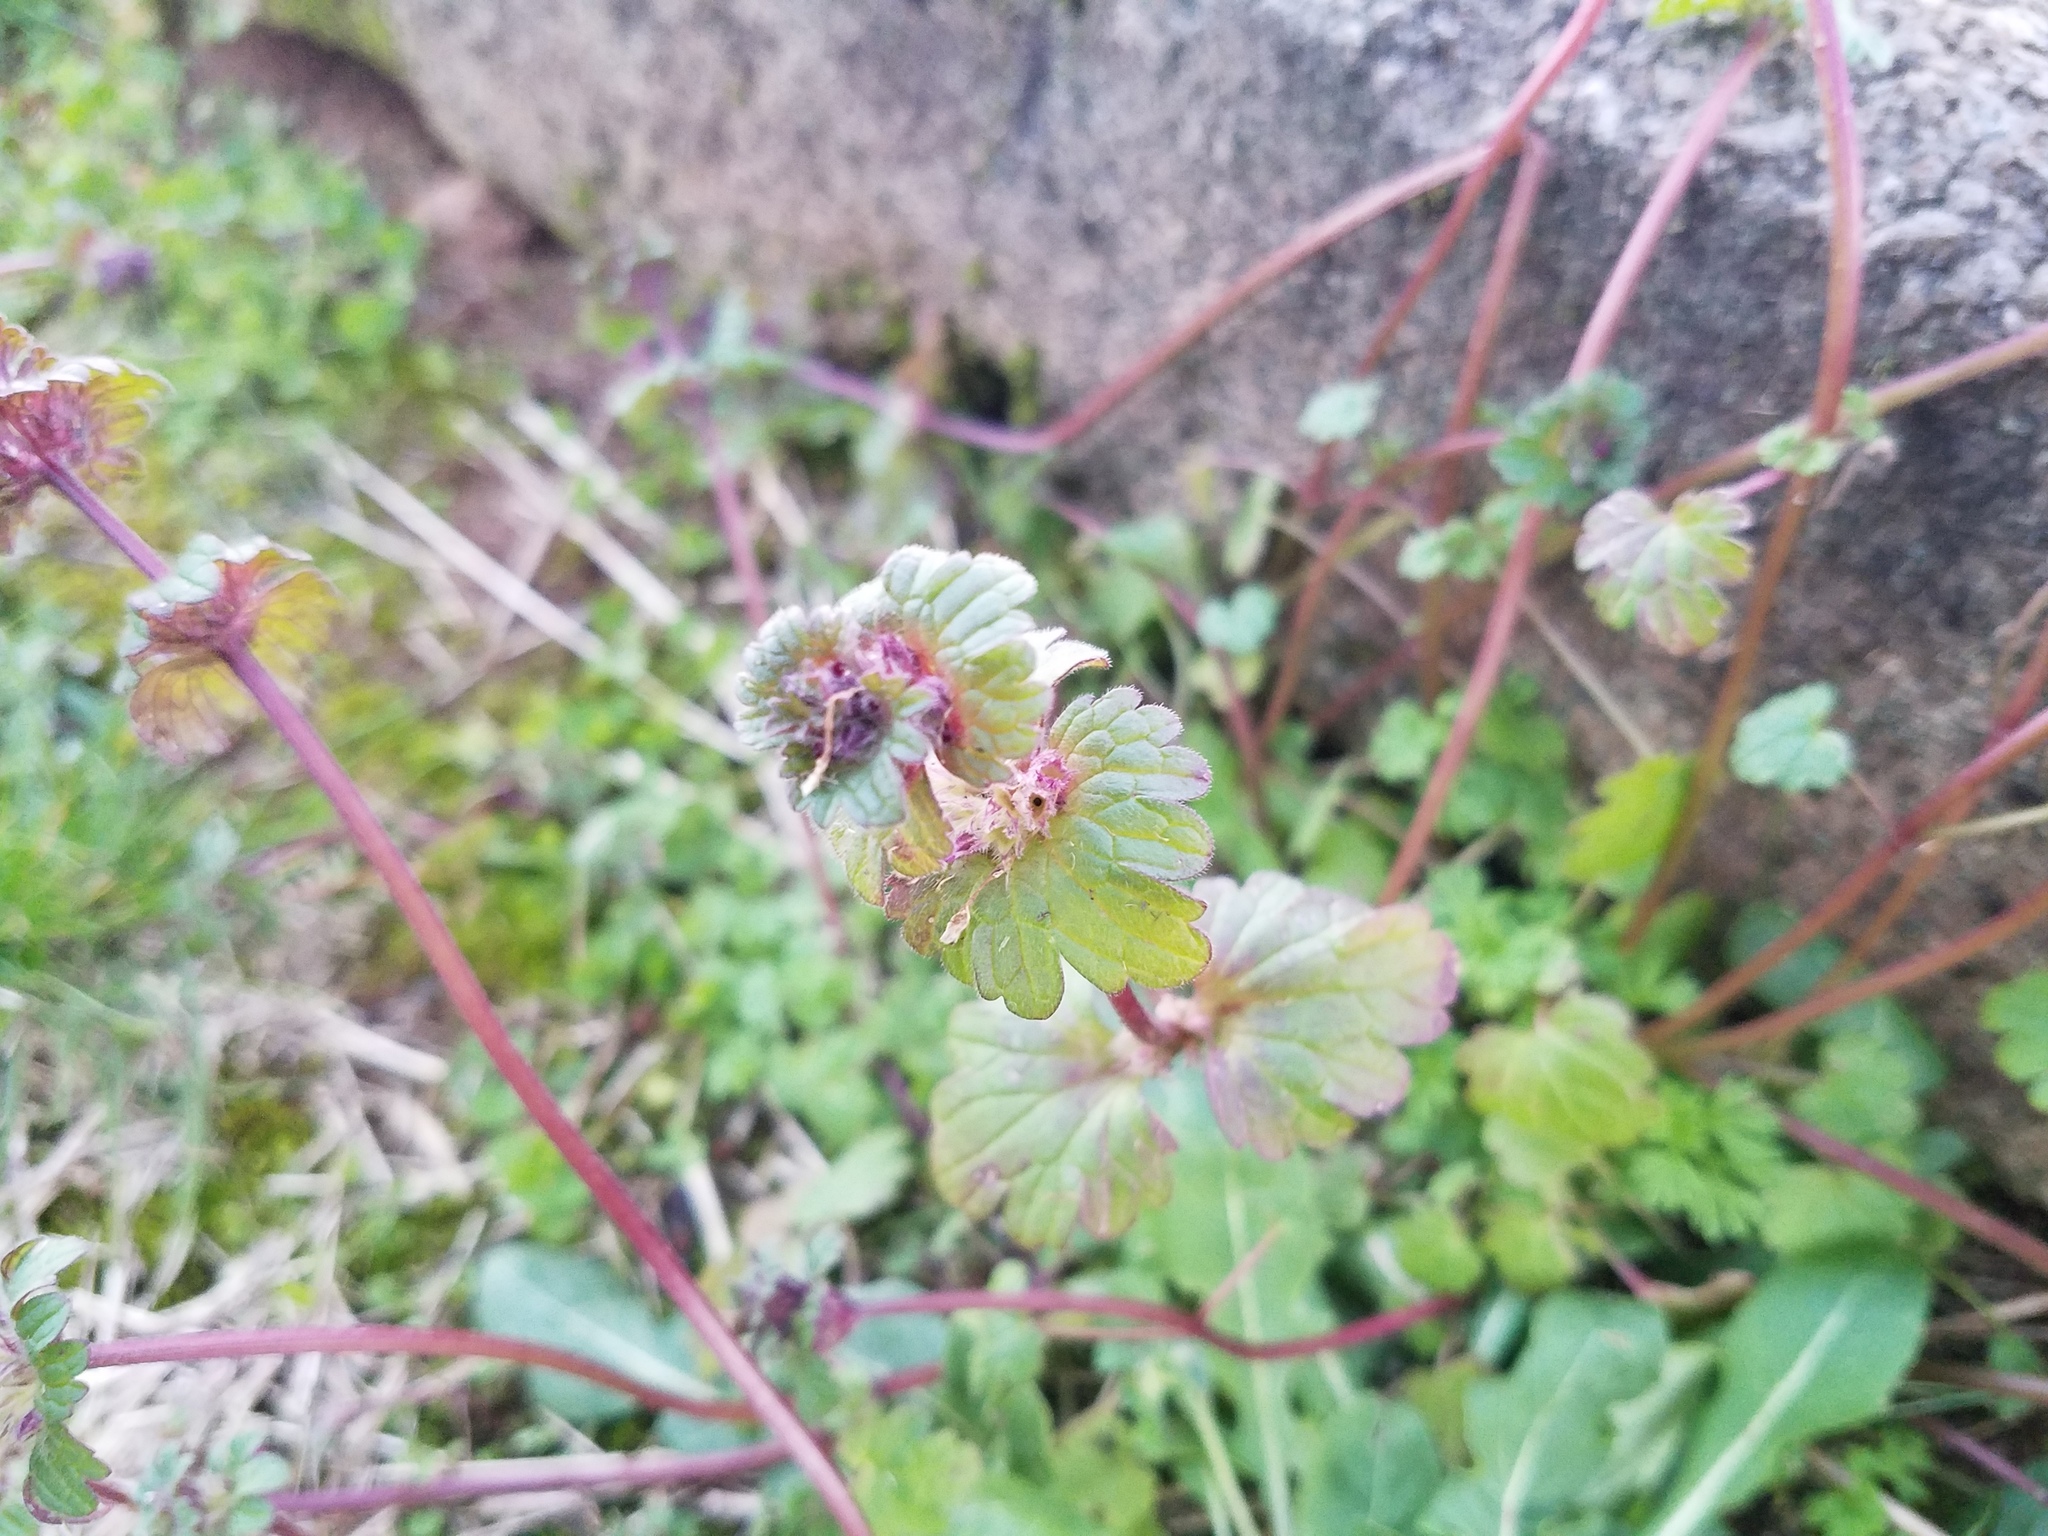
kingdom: Plantae
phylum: Tracheophyta
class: Magnoliopsida
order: Lamiales
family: Lamiaceae
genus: Lamium
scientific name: Lamium amplexicaule
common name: Henbit dead-nettle
